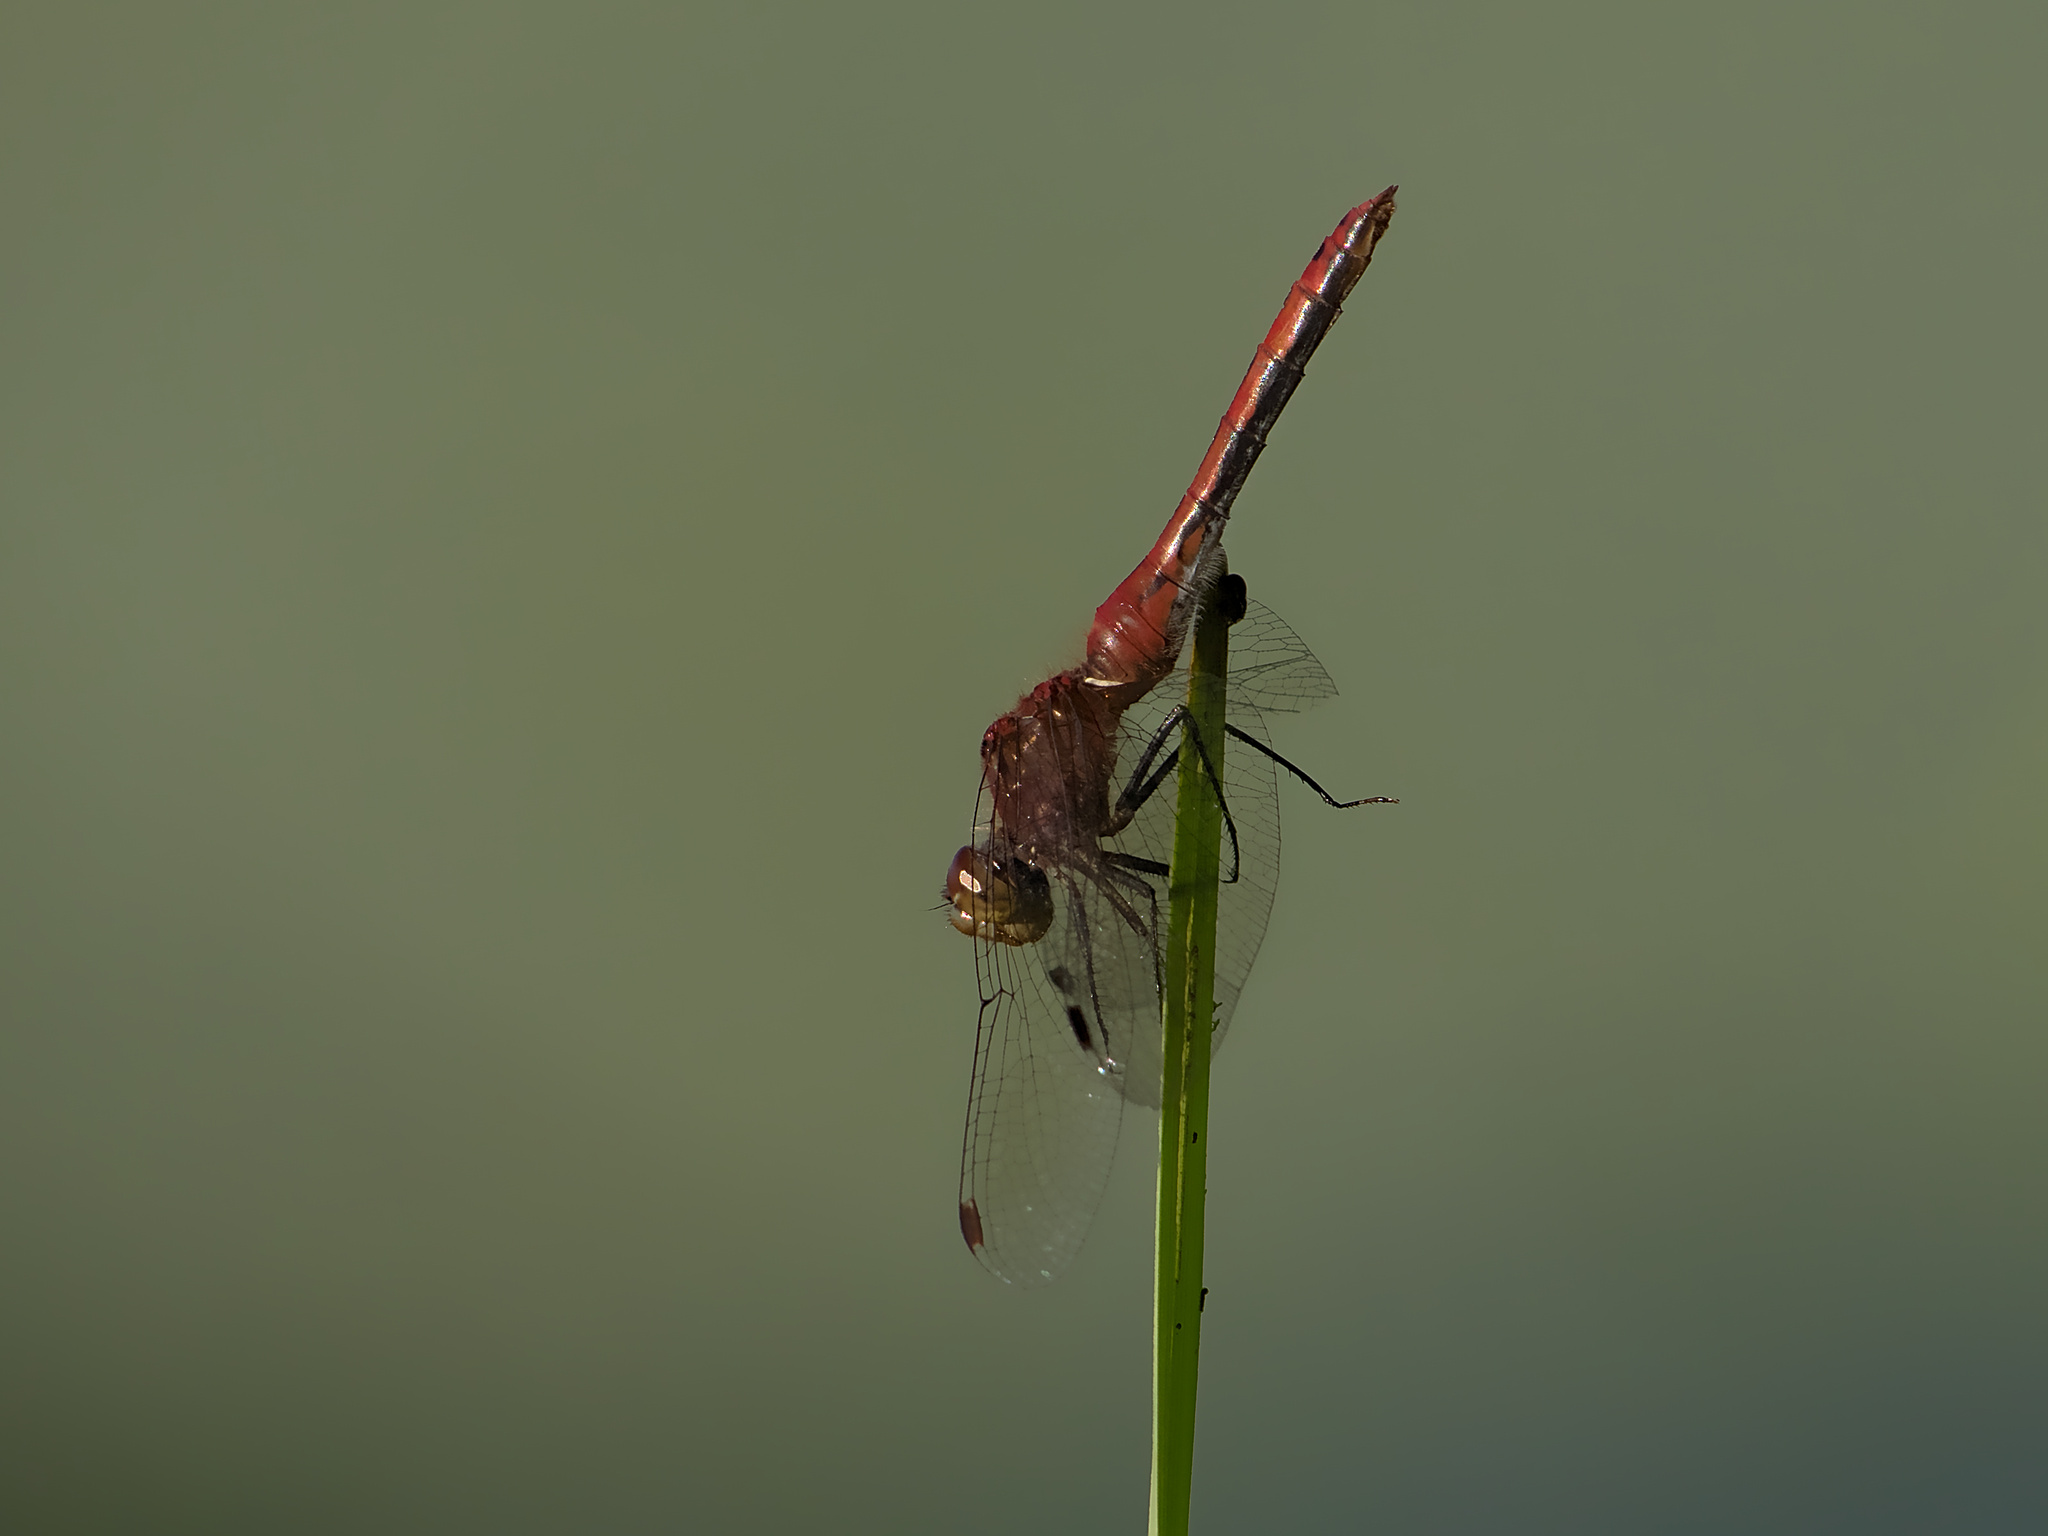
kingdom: Animalia
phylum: Arthropoda
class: Insecta
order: Odonata
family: Libellulidae
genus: Sympetrum
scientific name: Sympetrum internum
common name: Cherry-faced meadowhawk
